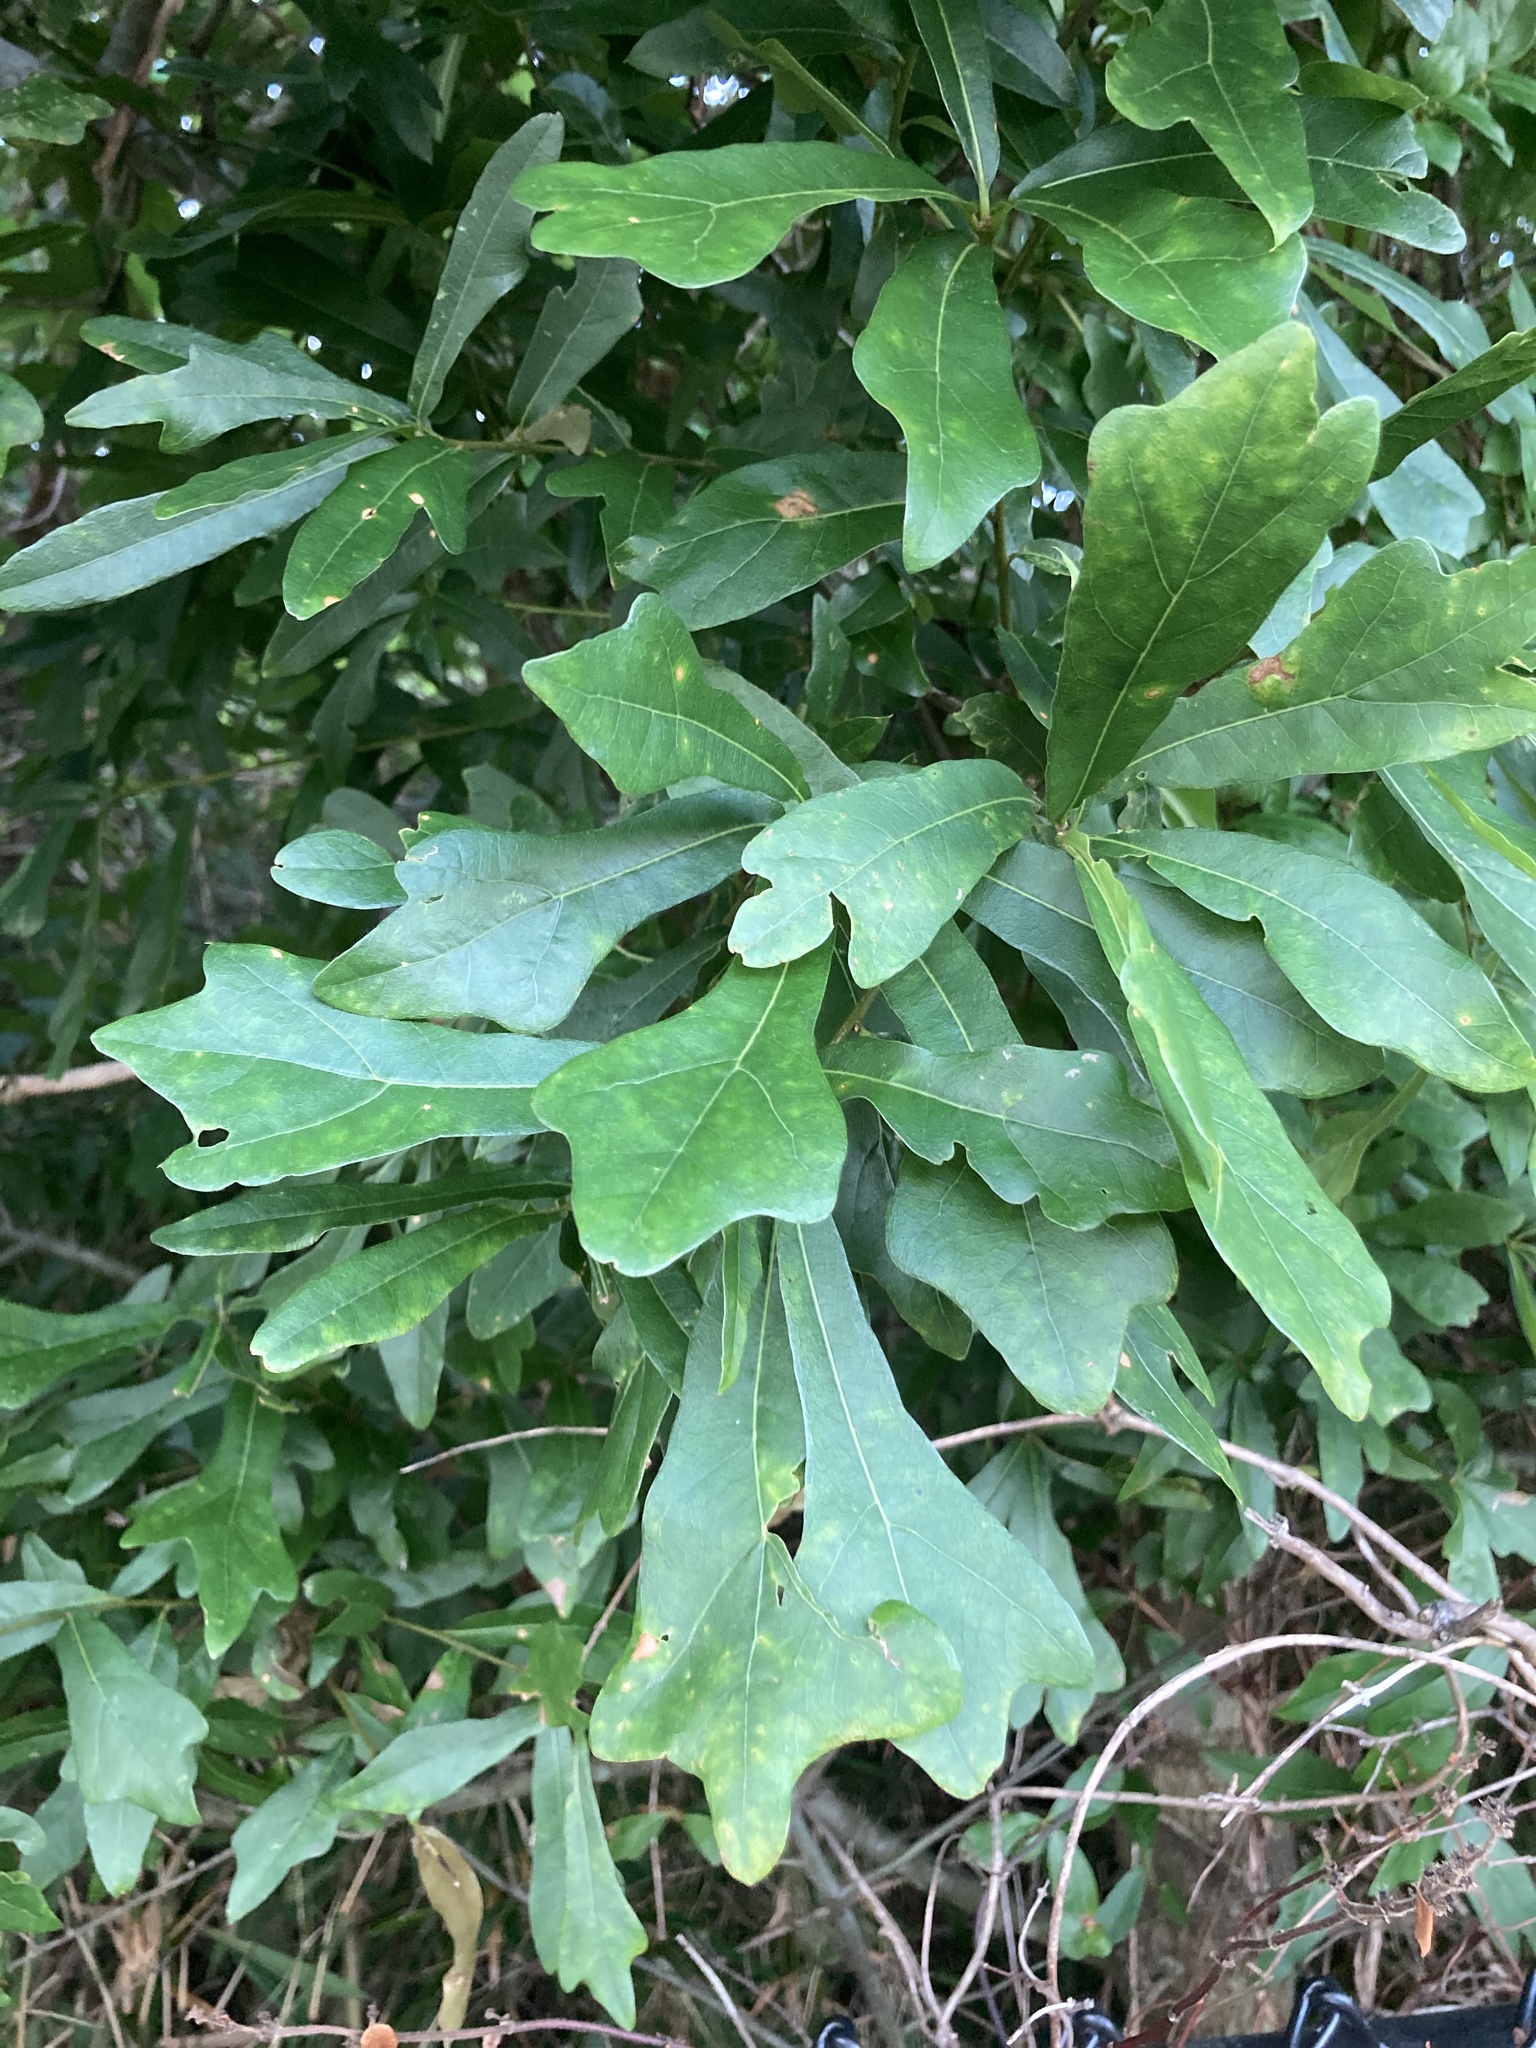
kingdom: Plantae
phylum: Tracheophyta
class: Magnoliopsida
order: Fagales
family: Fagaceae
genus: Quercus
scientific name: Quercus nigra
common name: Water oak
